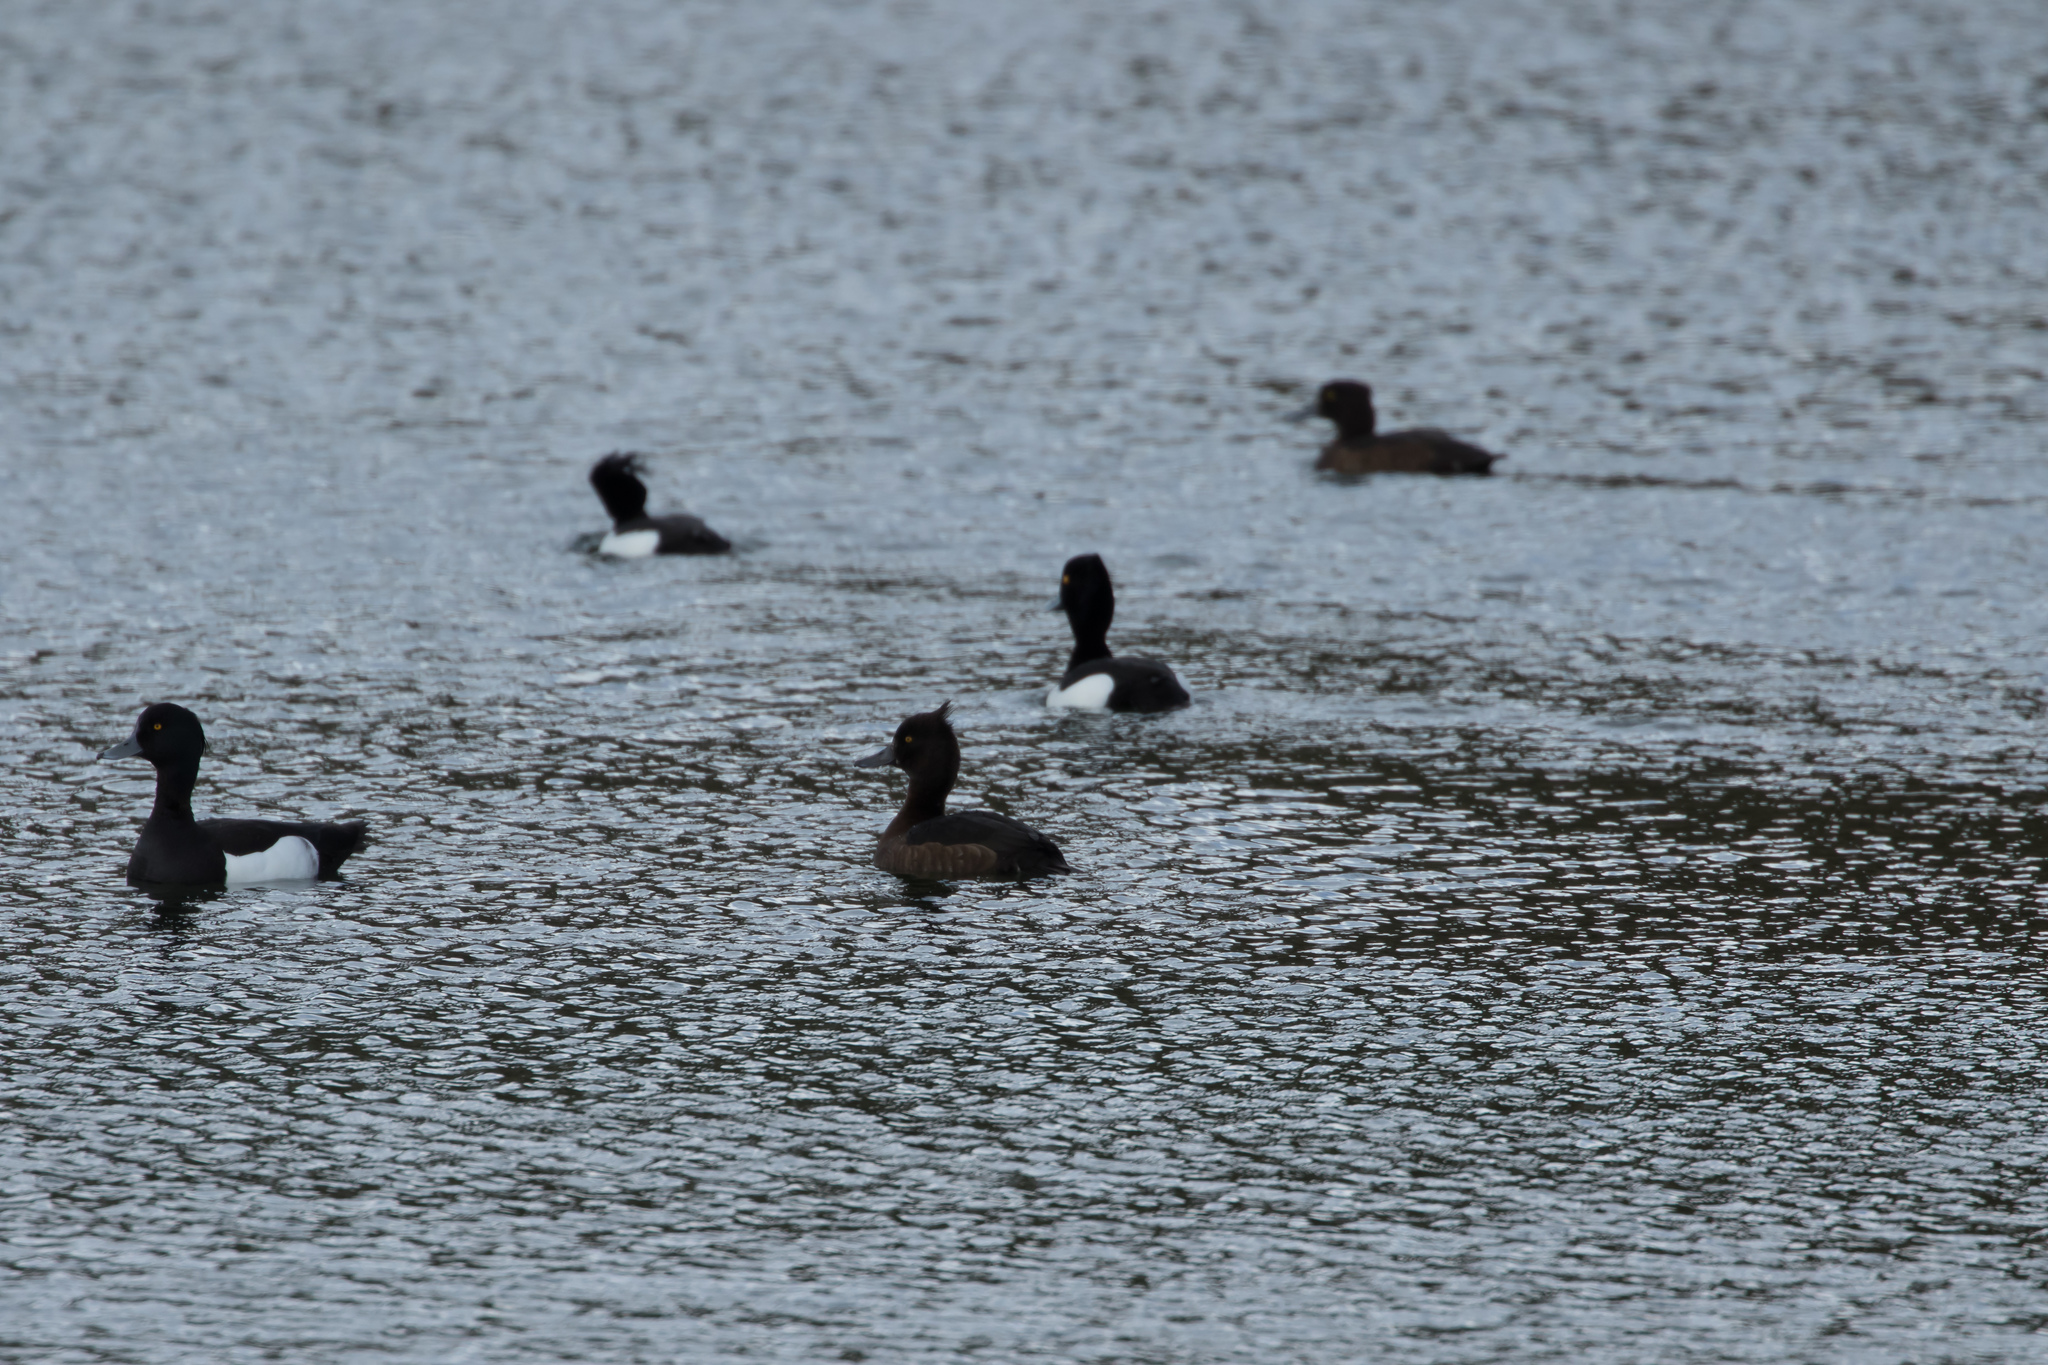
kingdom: Animalia
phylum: Chordata
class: Aves
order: Anseriformes
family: Anatidae
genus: Aythya
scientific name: Aythya fuligula
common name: Tufted duck
